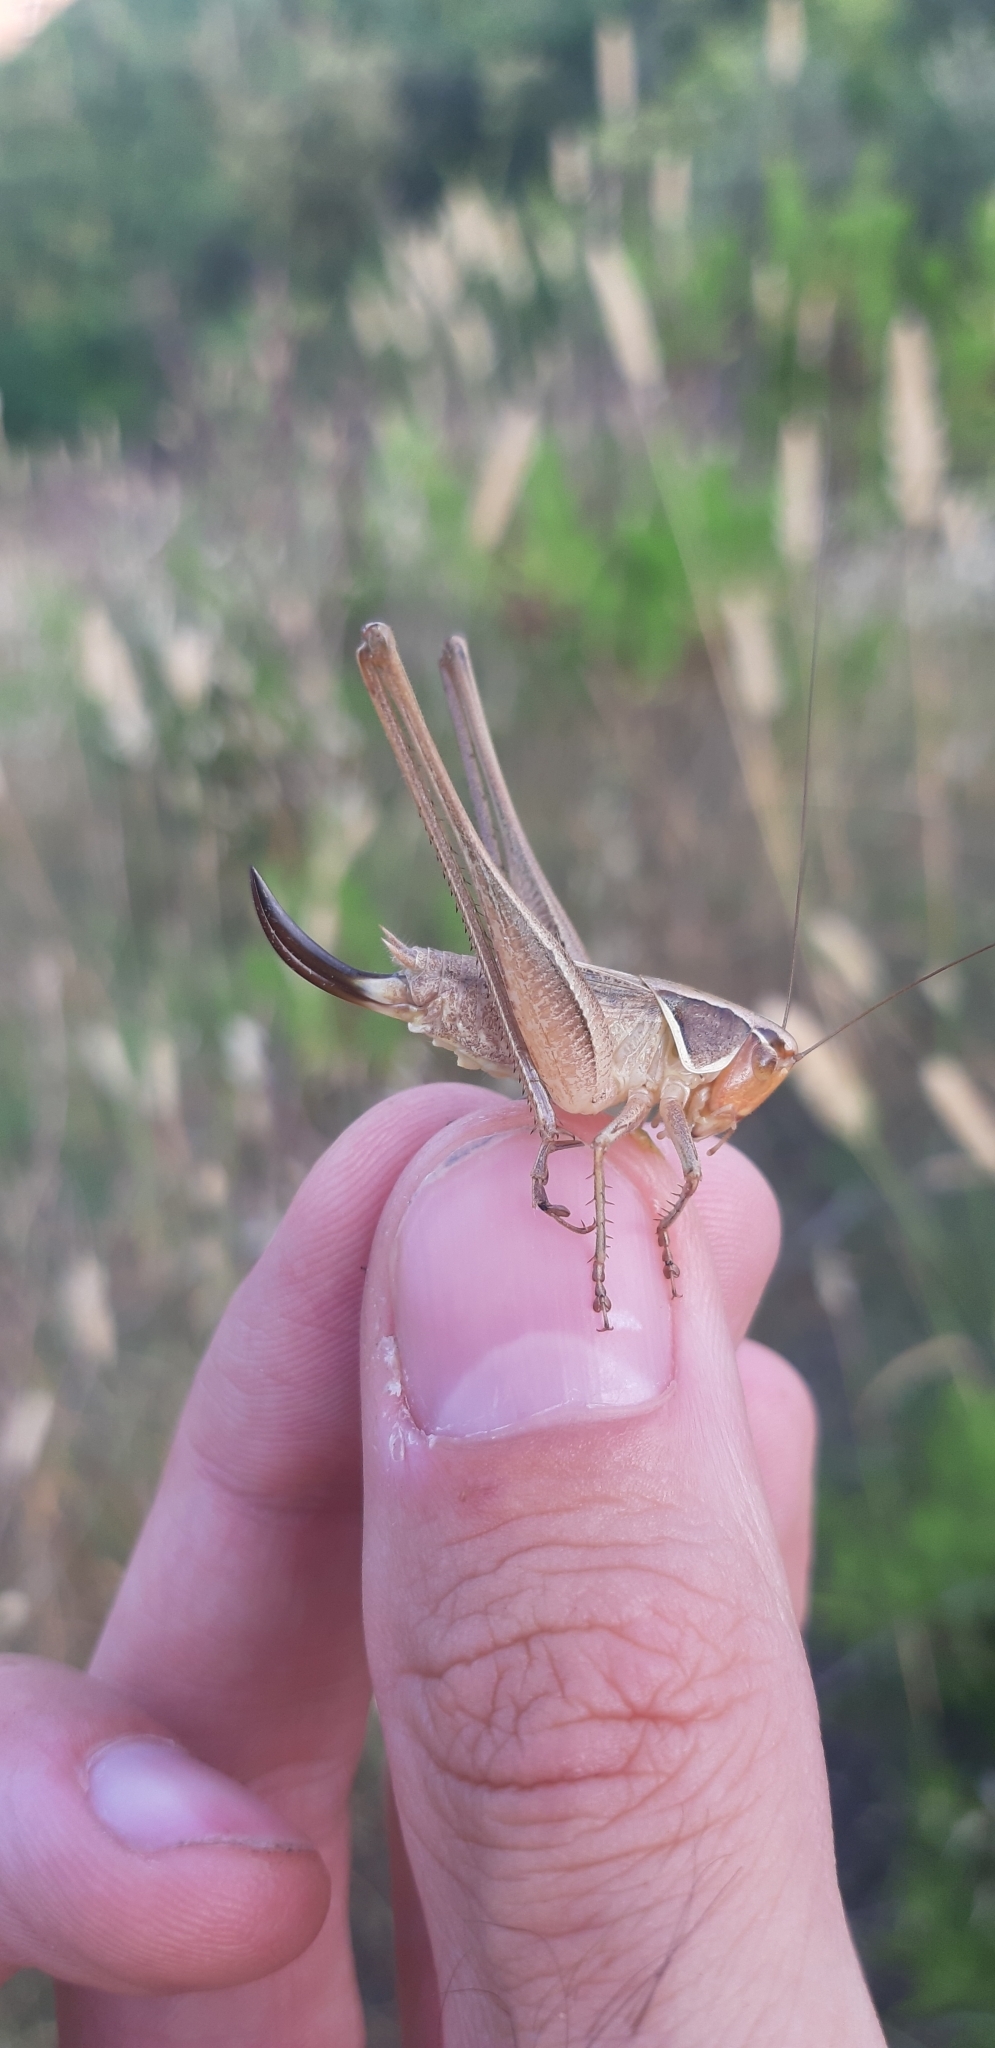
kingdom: Animalia
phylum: Arthropoda
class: Insecta
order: Orthoptera
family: Tettigoniidae
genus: Sepiana
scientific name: Sepiana sepium
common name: Sepia bush-cricket
